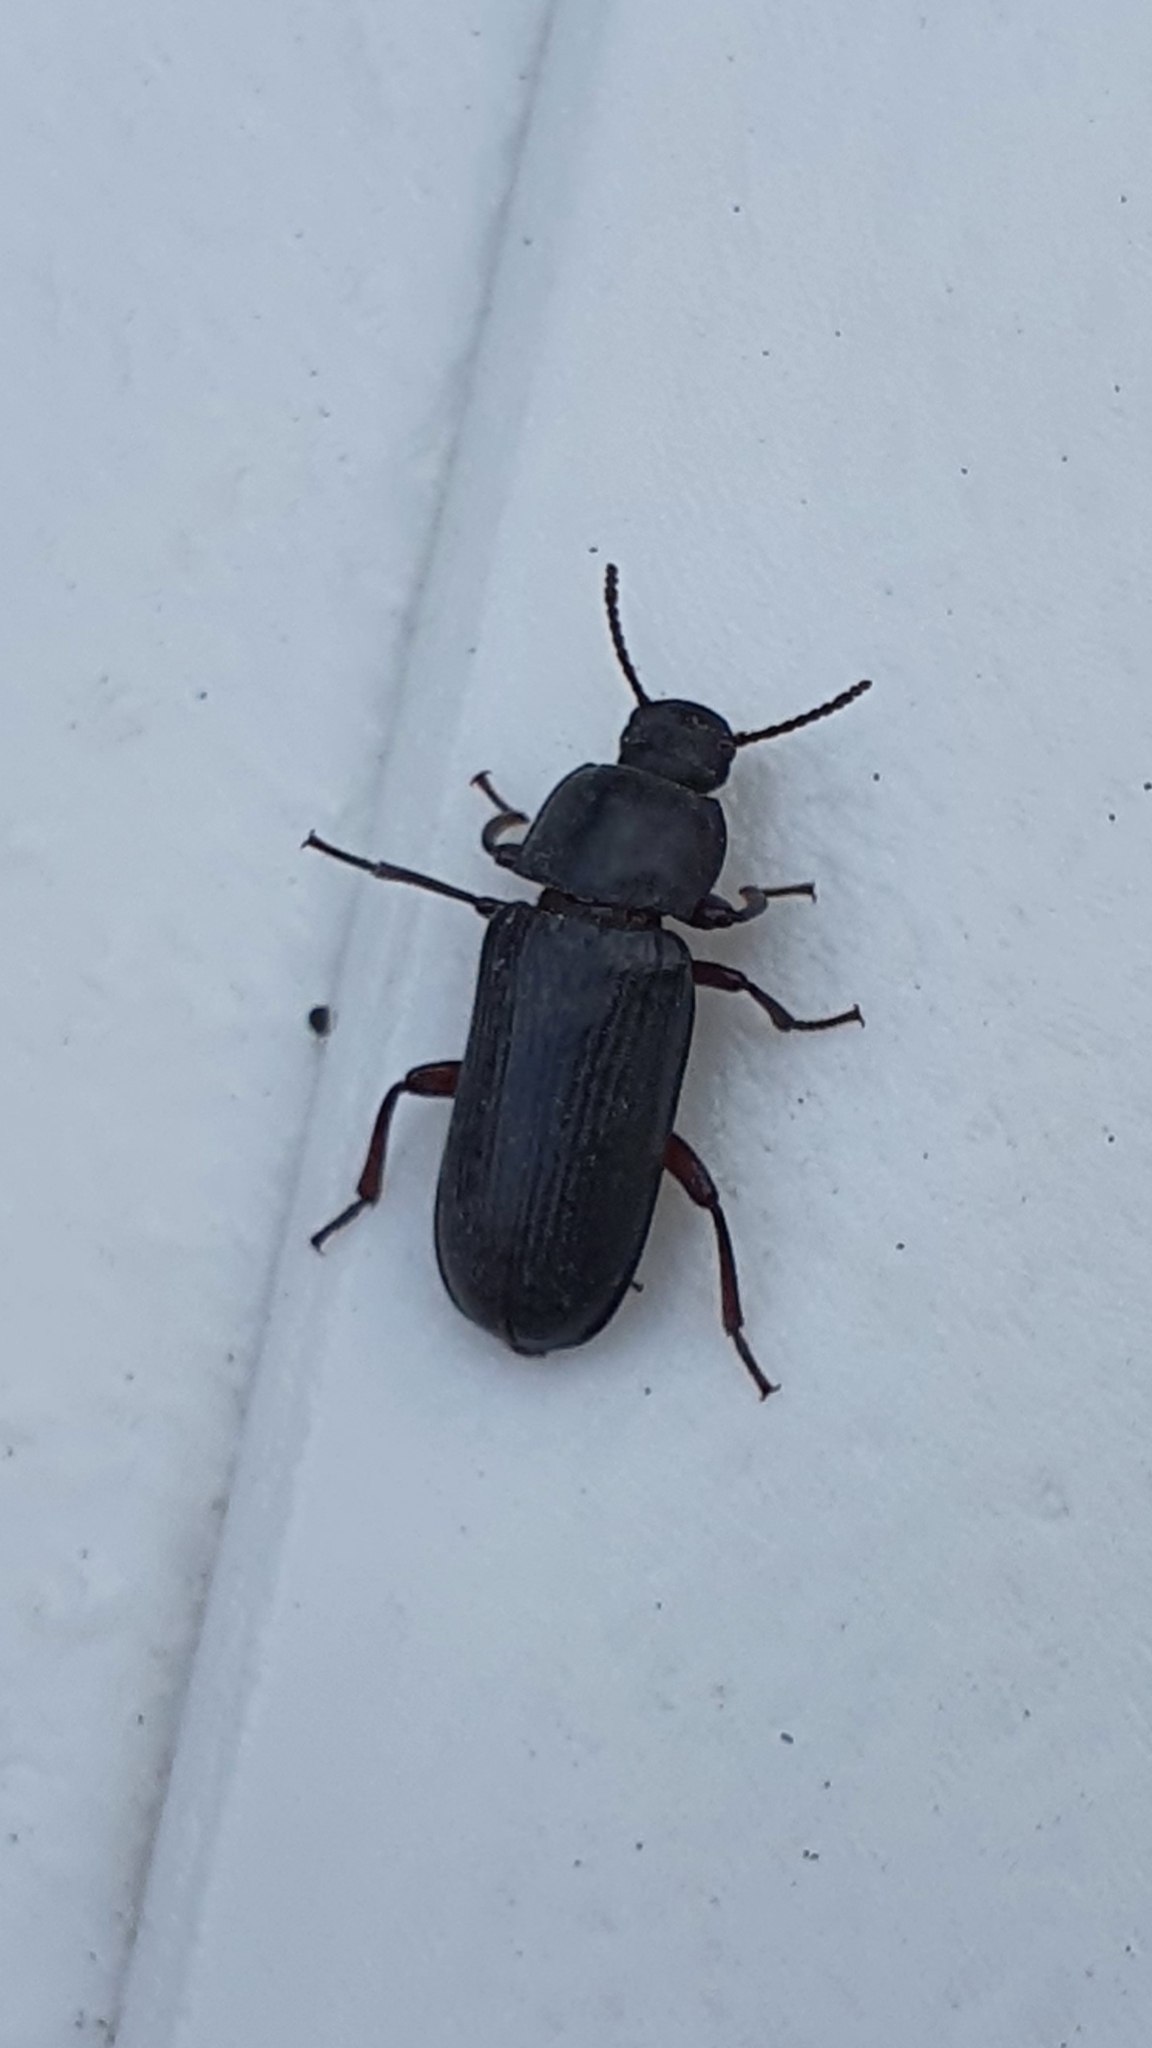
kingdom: Animalia
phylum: Arthropoda
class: Insecta
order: Coleoptera
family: Tenebrionidae
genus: Tenebrio
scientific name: Tenebrio molitor
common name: Hardback beetle
